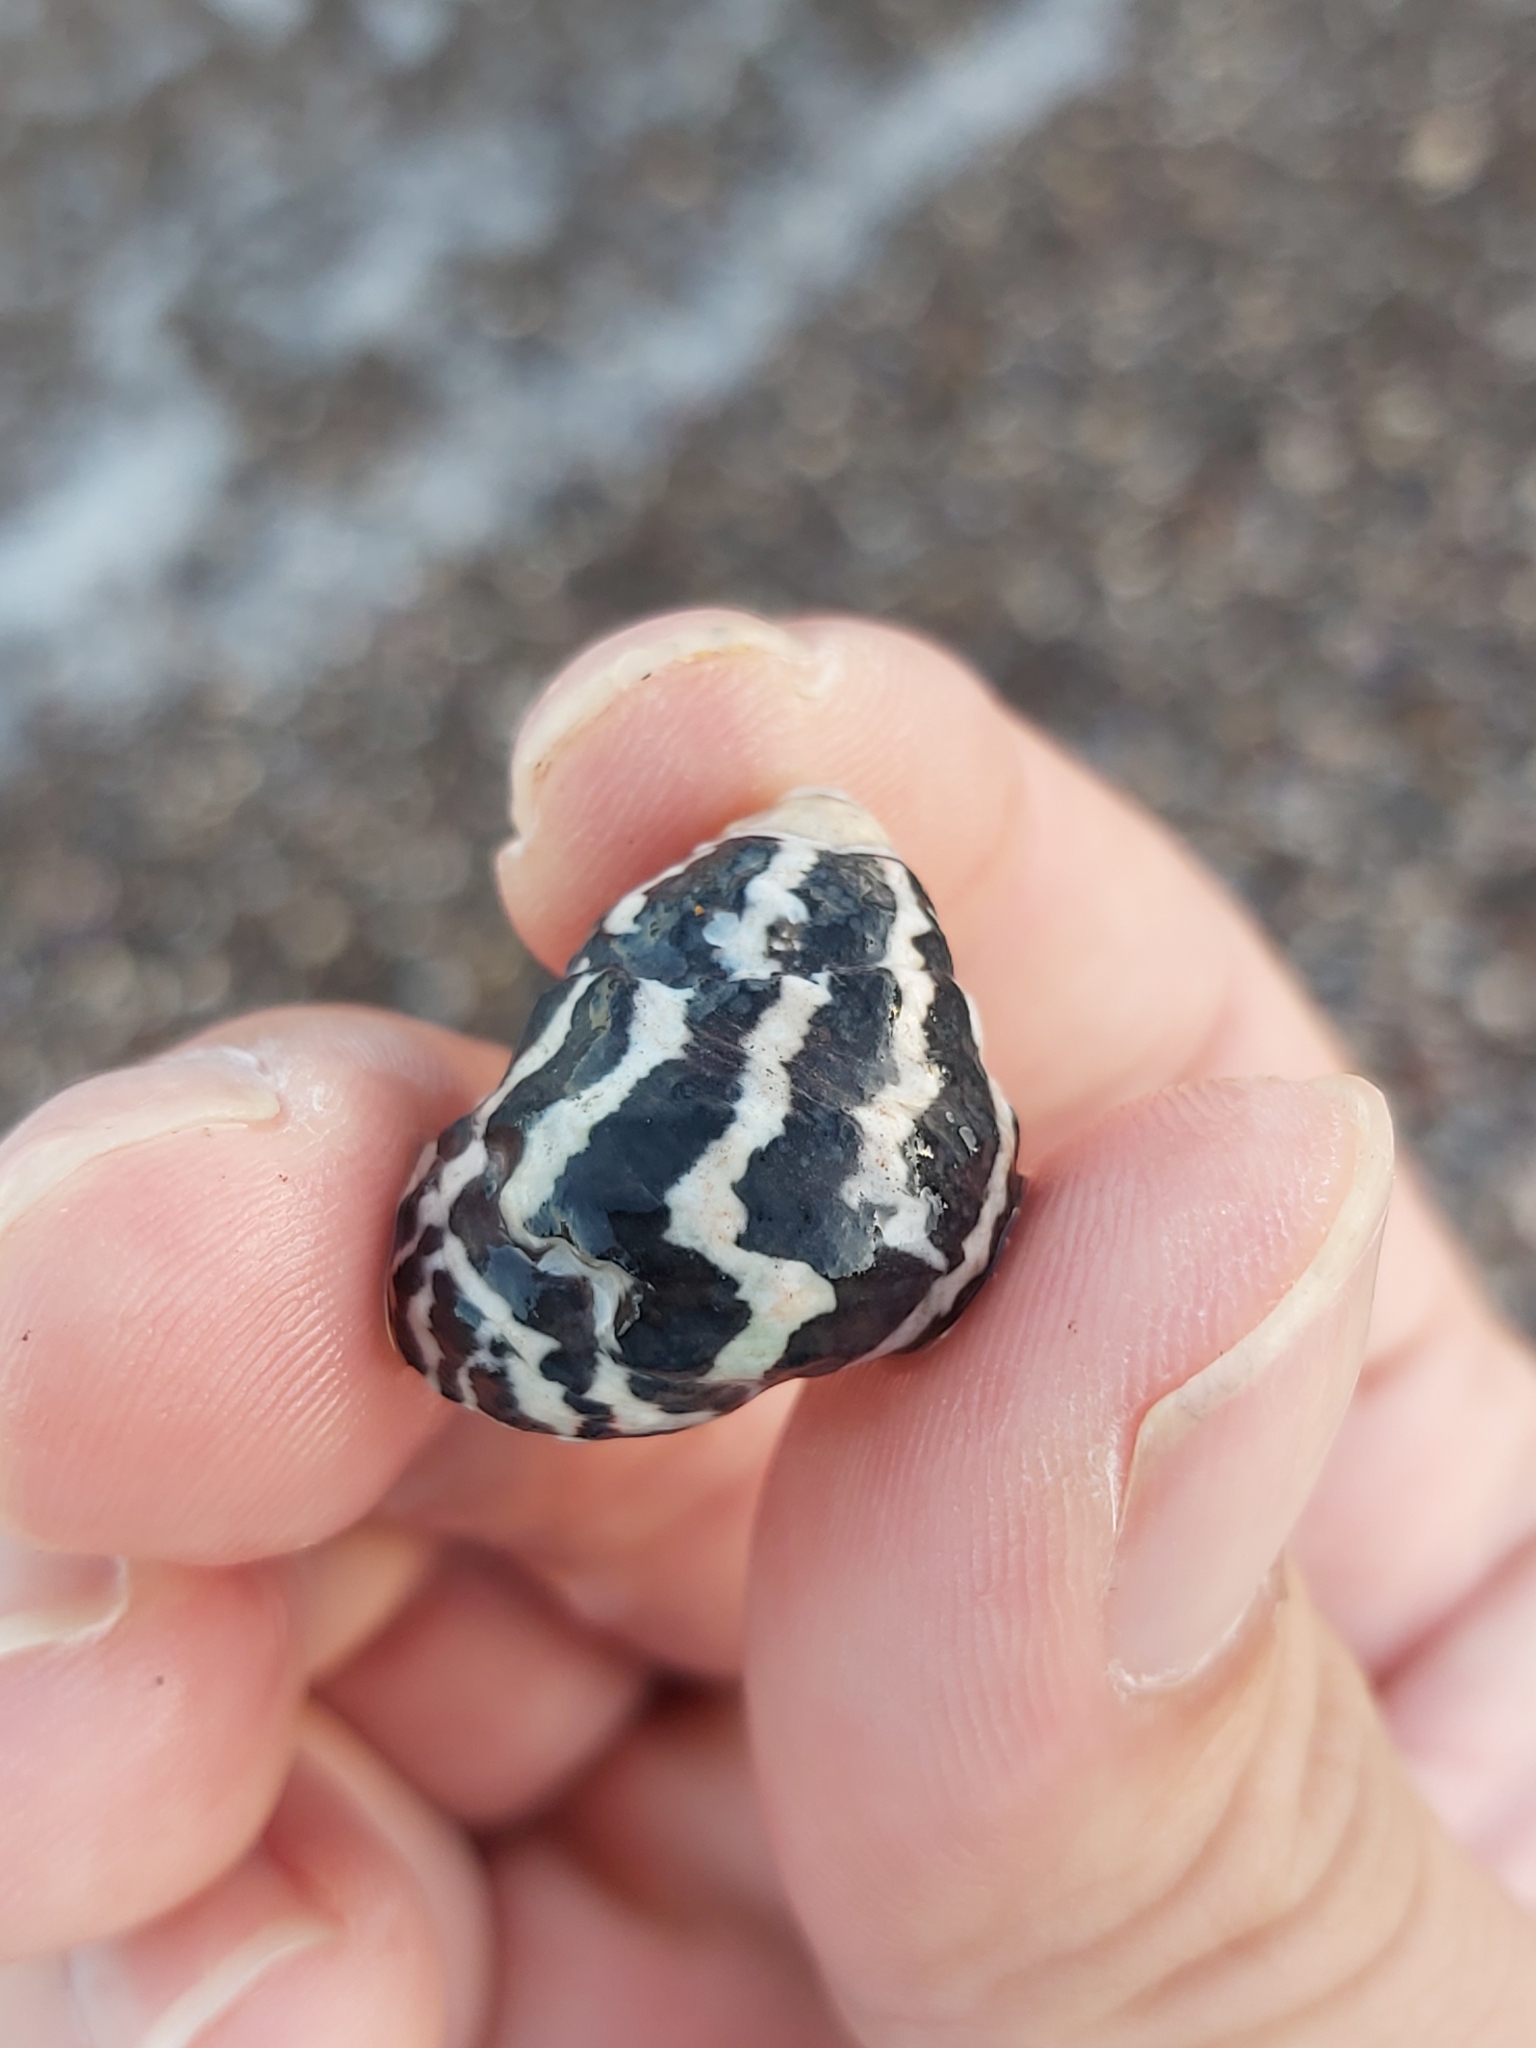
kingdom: Animalia
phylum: Mollusca
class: Gastropoda
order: Trochida
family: Trochidae
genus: Austrocochlea
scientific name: Austrocochlea porcata
